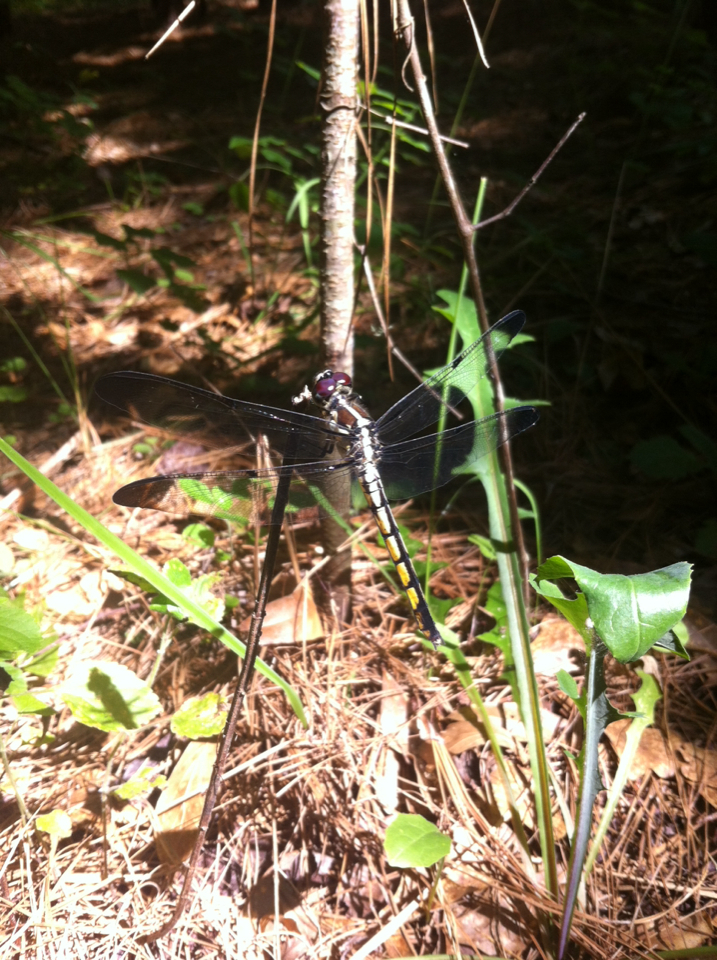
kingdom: Animalia
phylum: Arthropoda
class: Insecta
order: Odonata
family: Libellulidae
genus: Libellula
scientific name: Libellula vibrans
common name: Great blue skimmer
